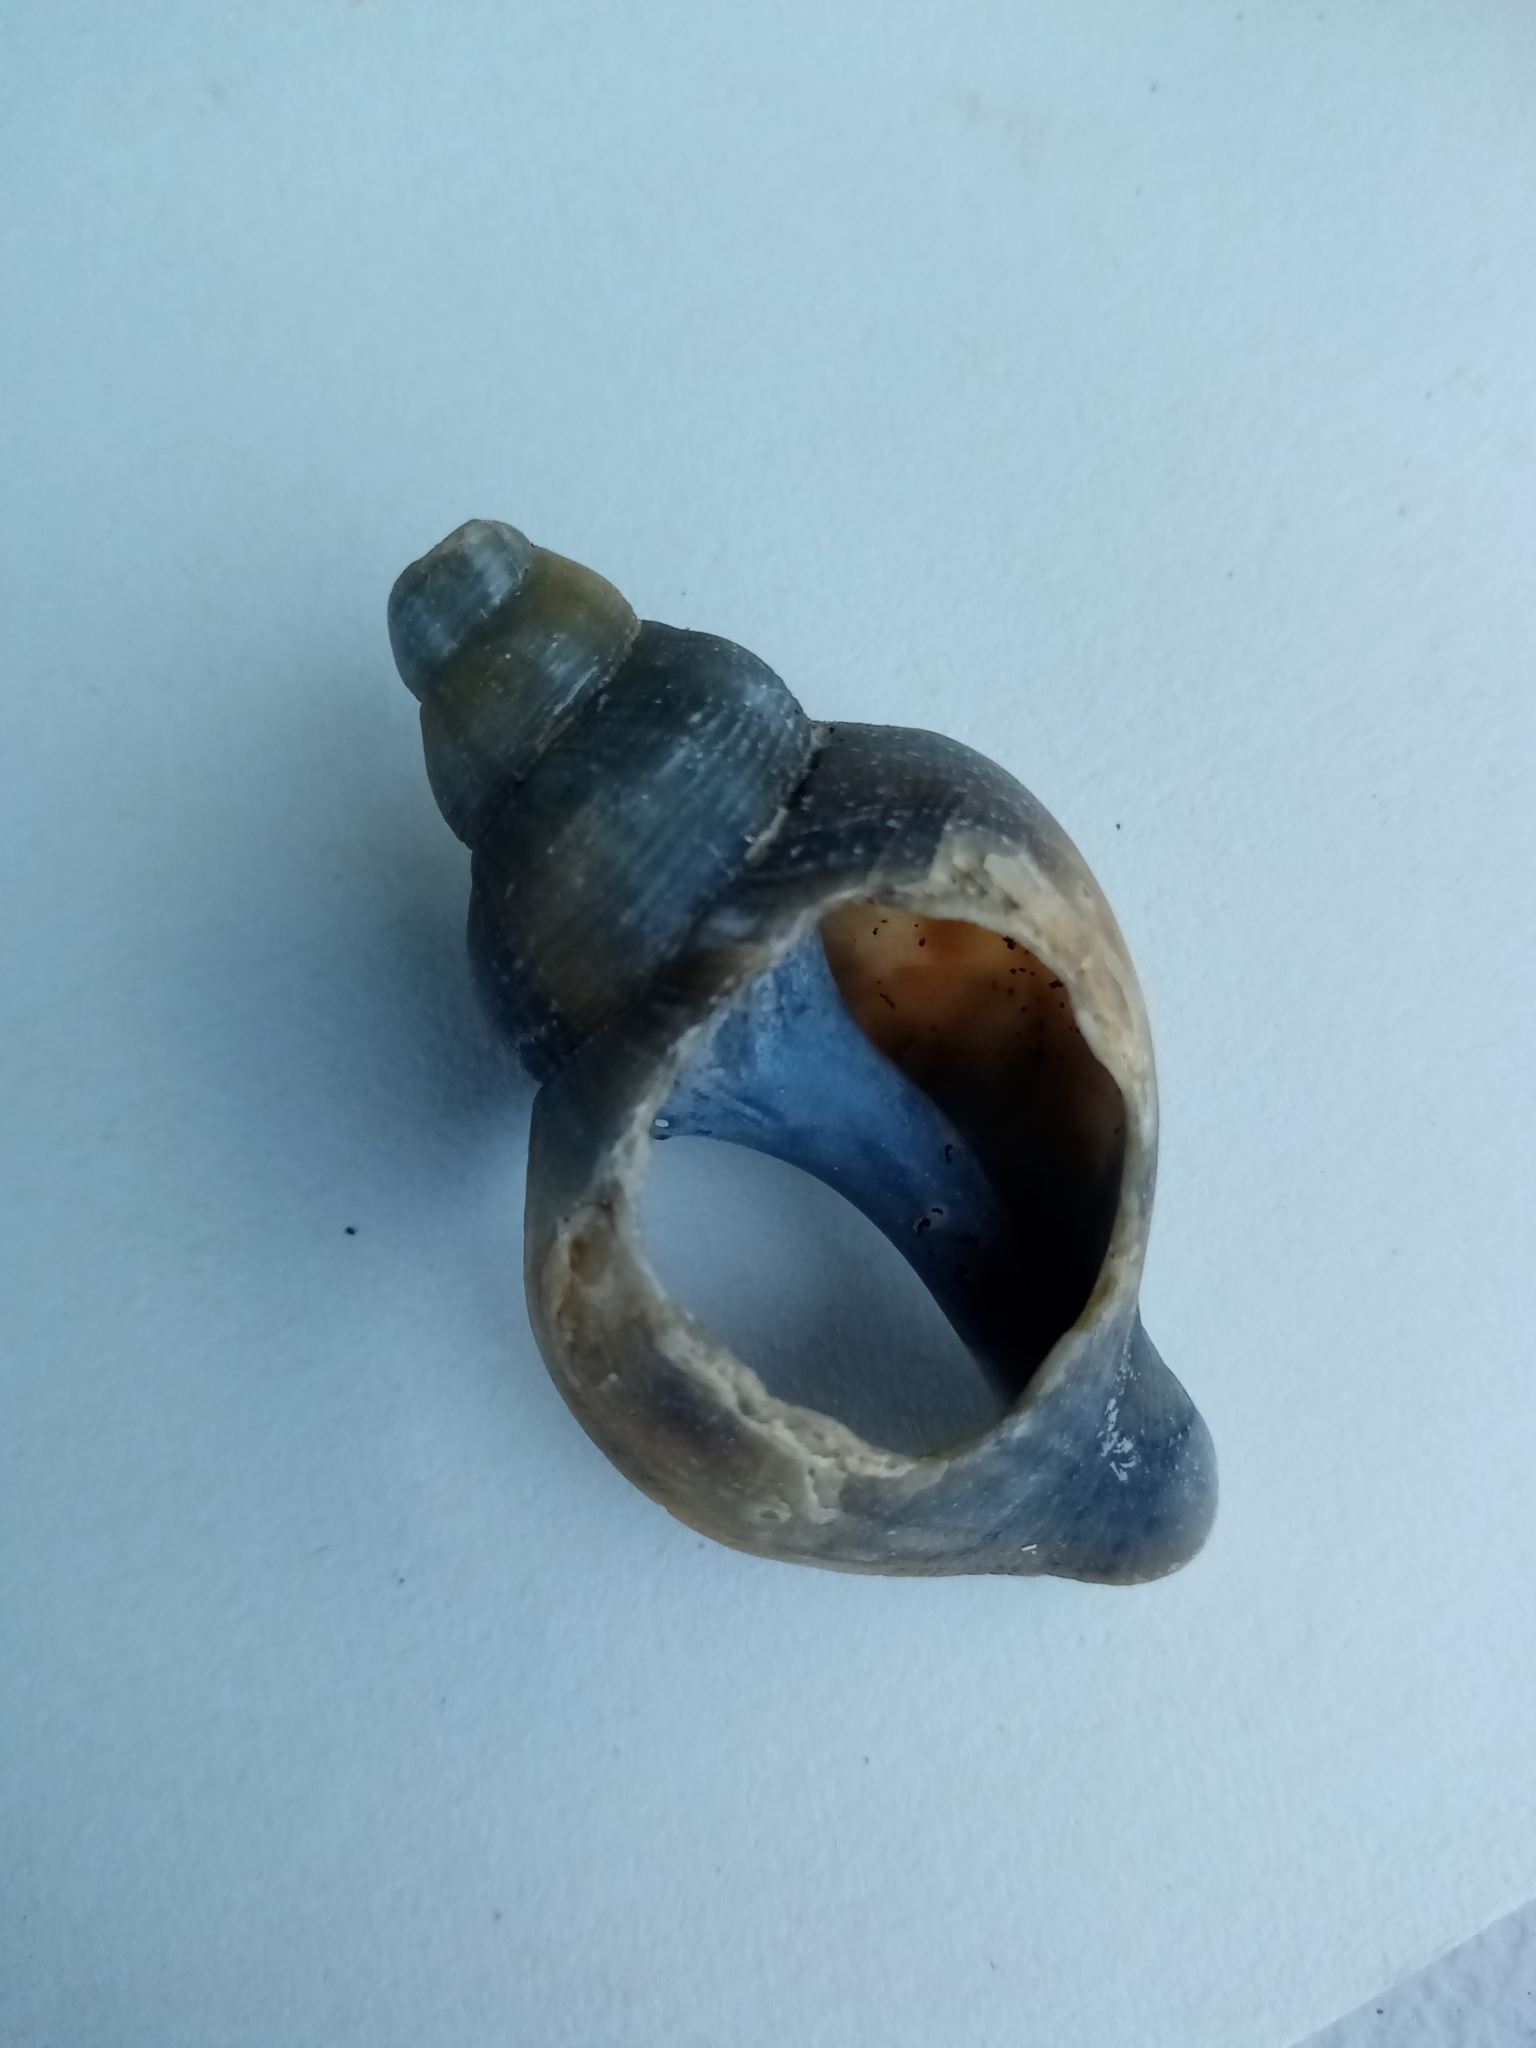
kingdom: Animalia
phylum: Mollusca
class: Gastropoda
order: Neogastropoda
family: Buccinidae
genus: Neptunea
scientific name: Neptunea antiqua
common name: Buckie
